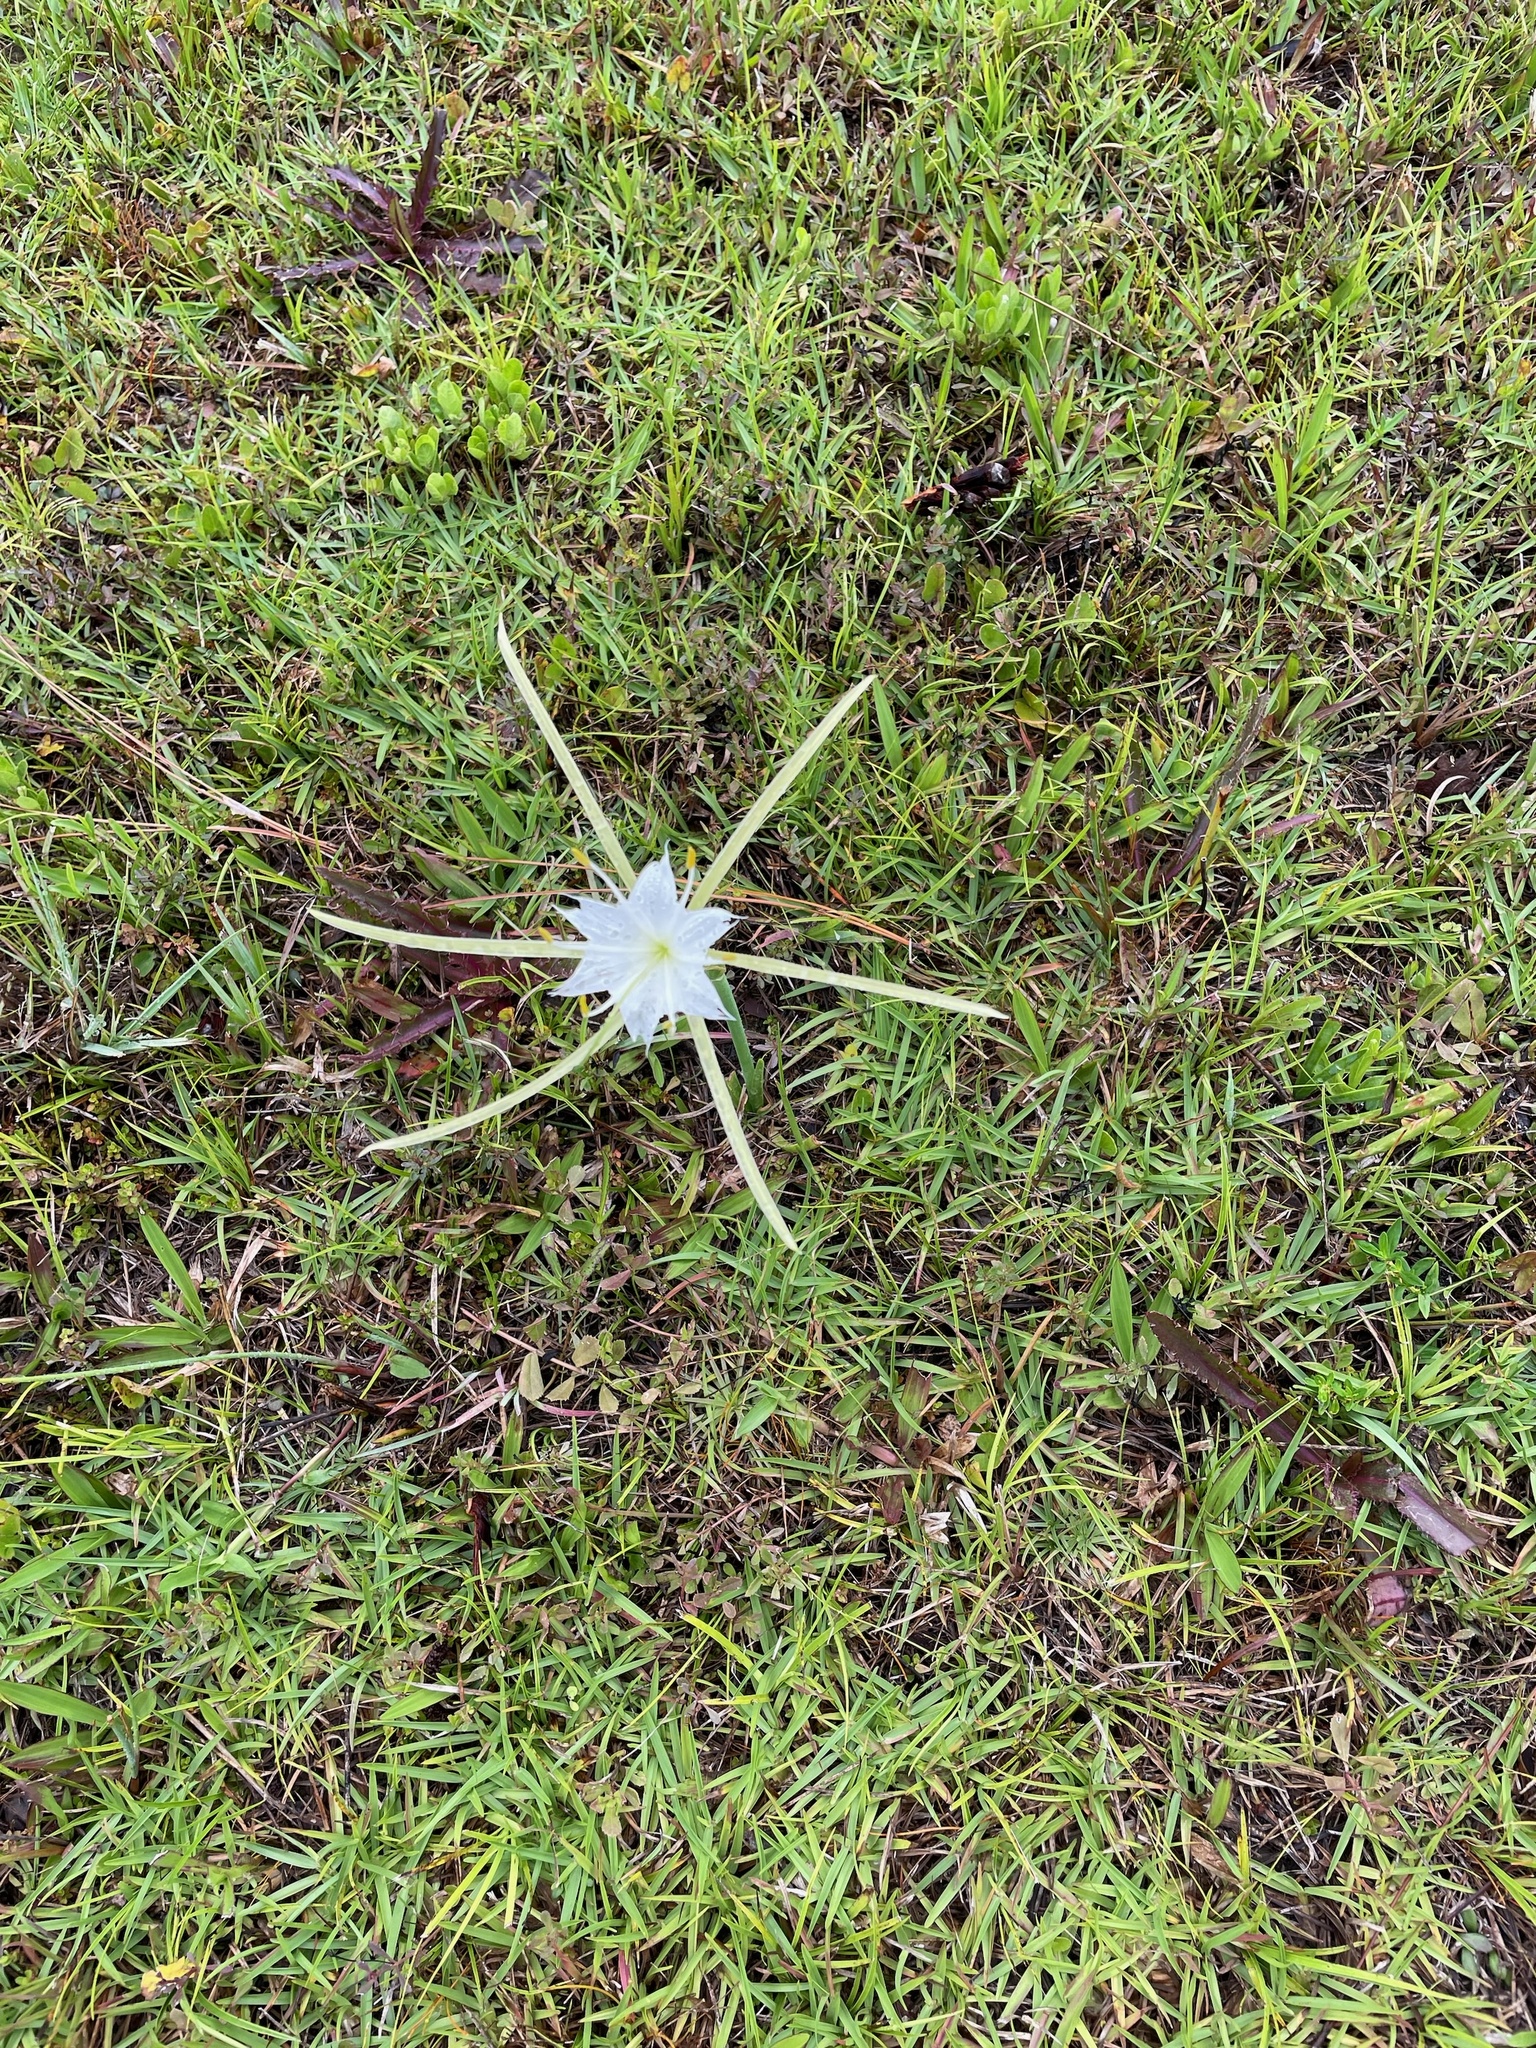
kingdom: Plantae
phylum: Tracheophyta
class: Liliopsida
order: Asparagales
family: Amaryllidaceae
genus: Hymenocallis
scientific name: Hymenocallis palmeri
